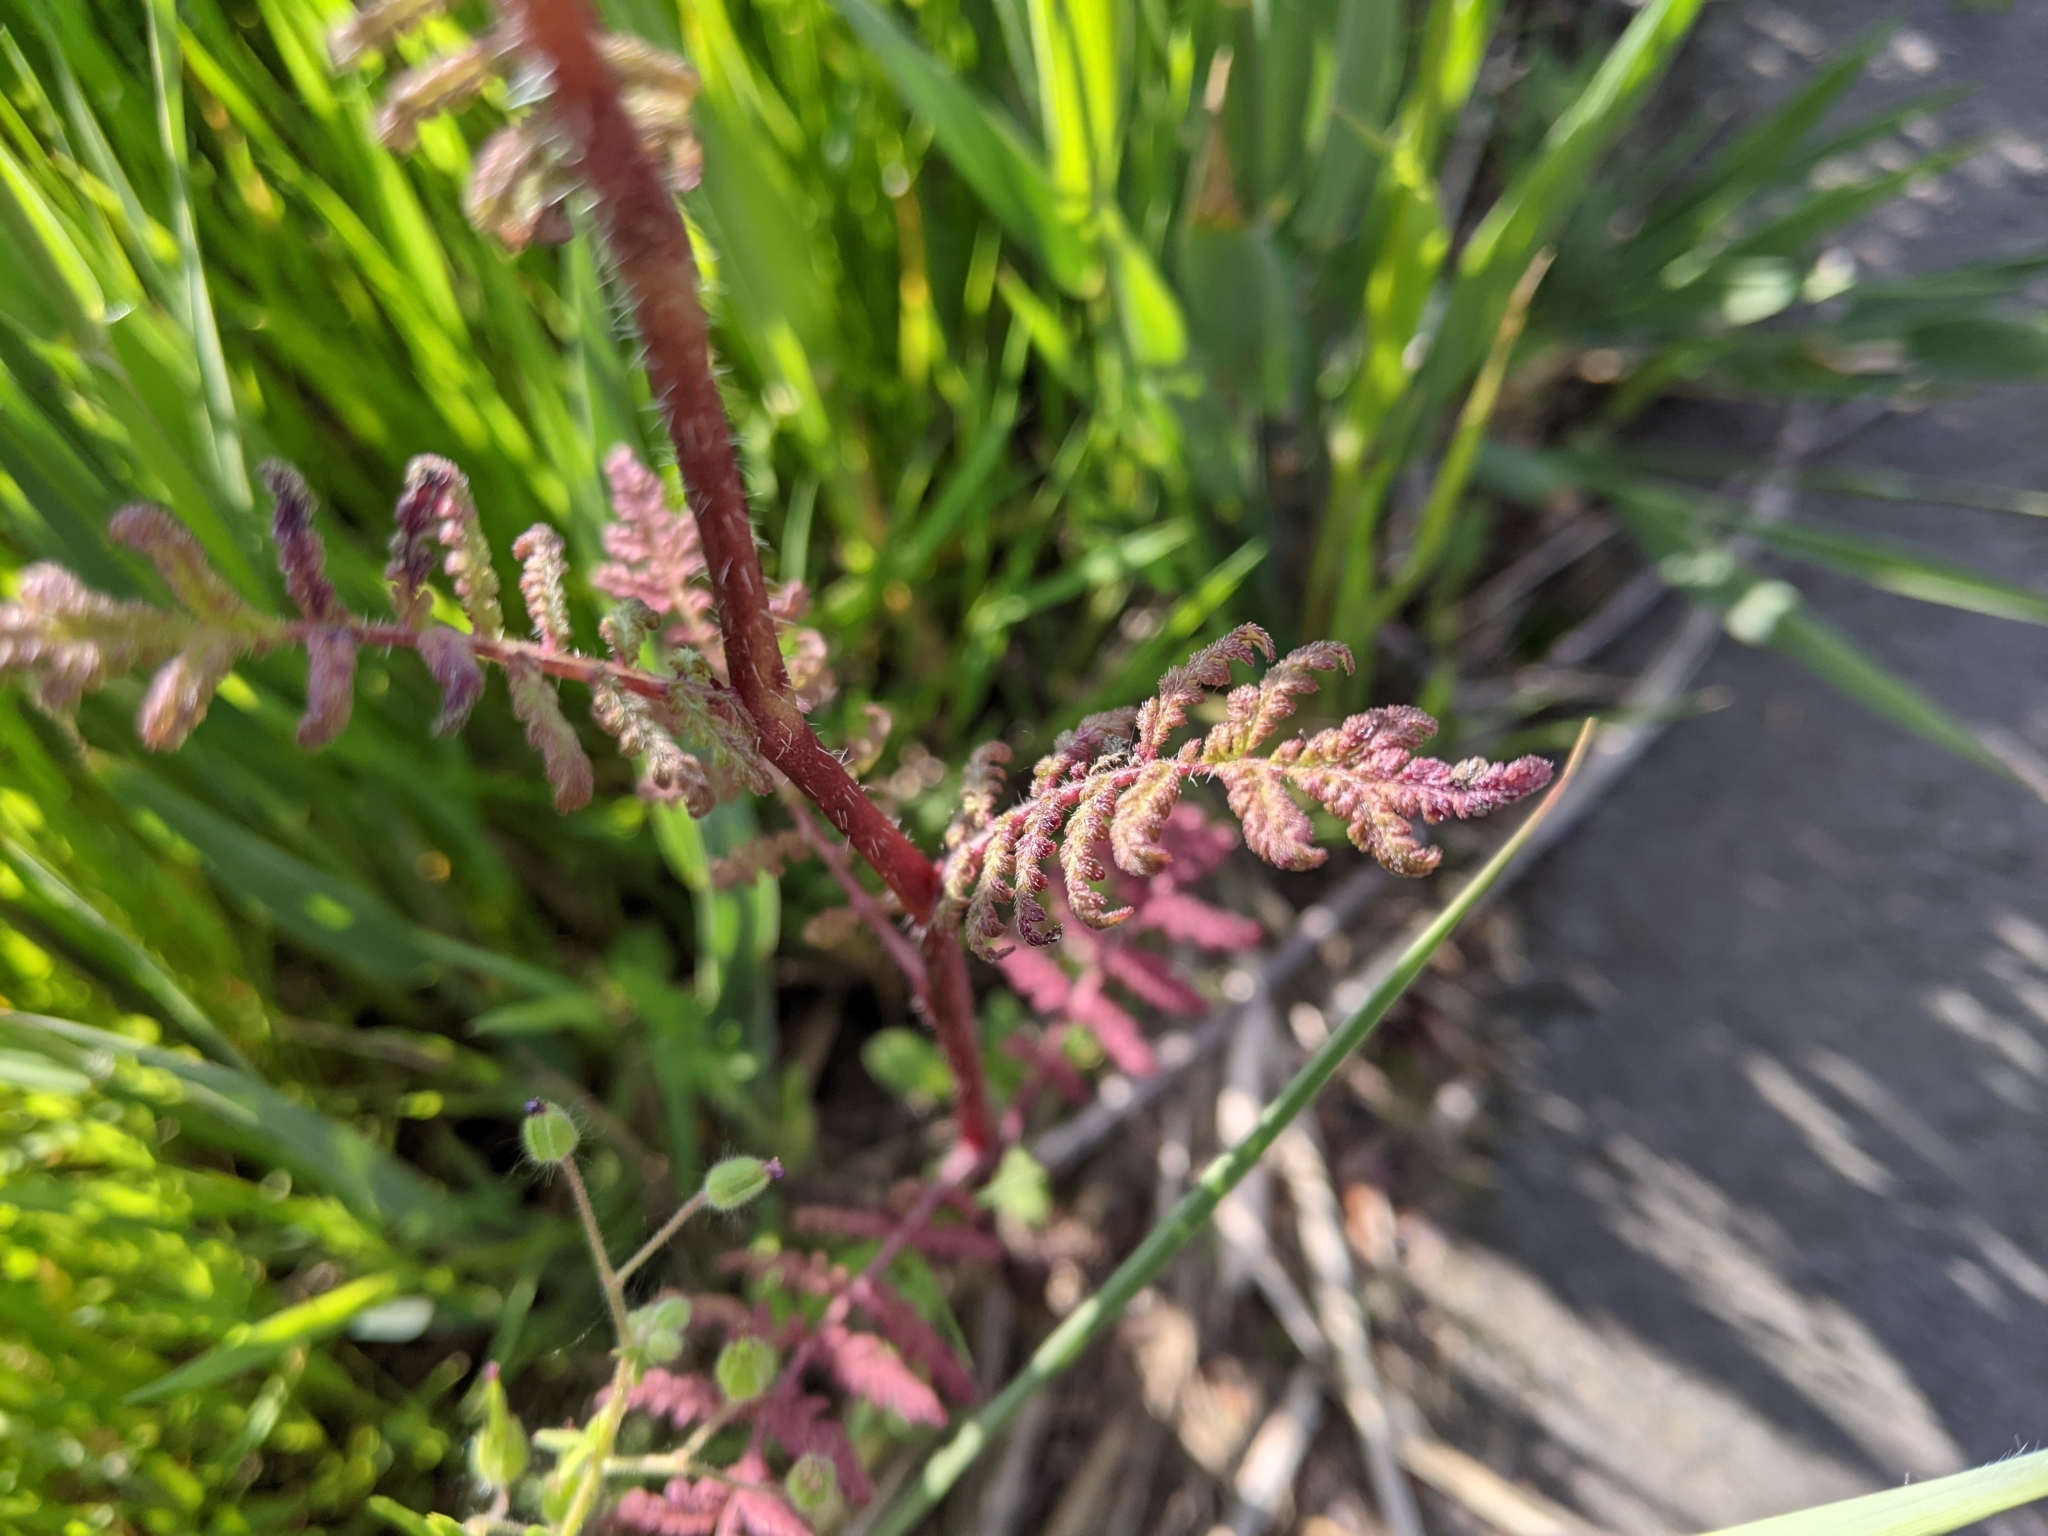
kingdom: Plantae
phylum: Tracheophyta
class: Magnoliopsida
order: Boraginales
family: Hydrophyllaceae
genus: Phacelia
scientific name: Phacelia tanacetifolia
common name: Phacelia
